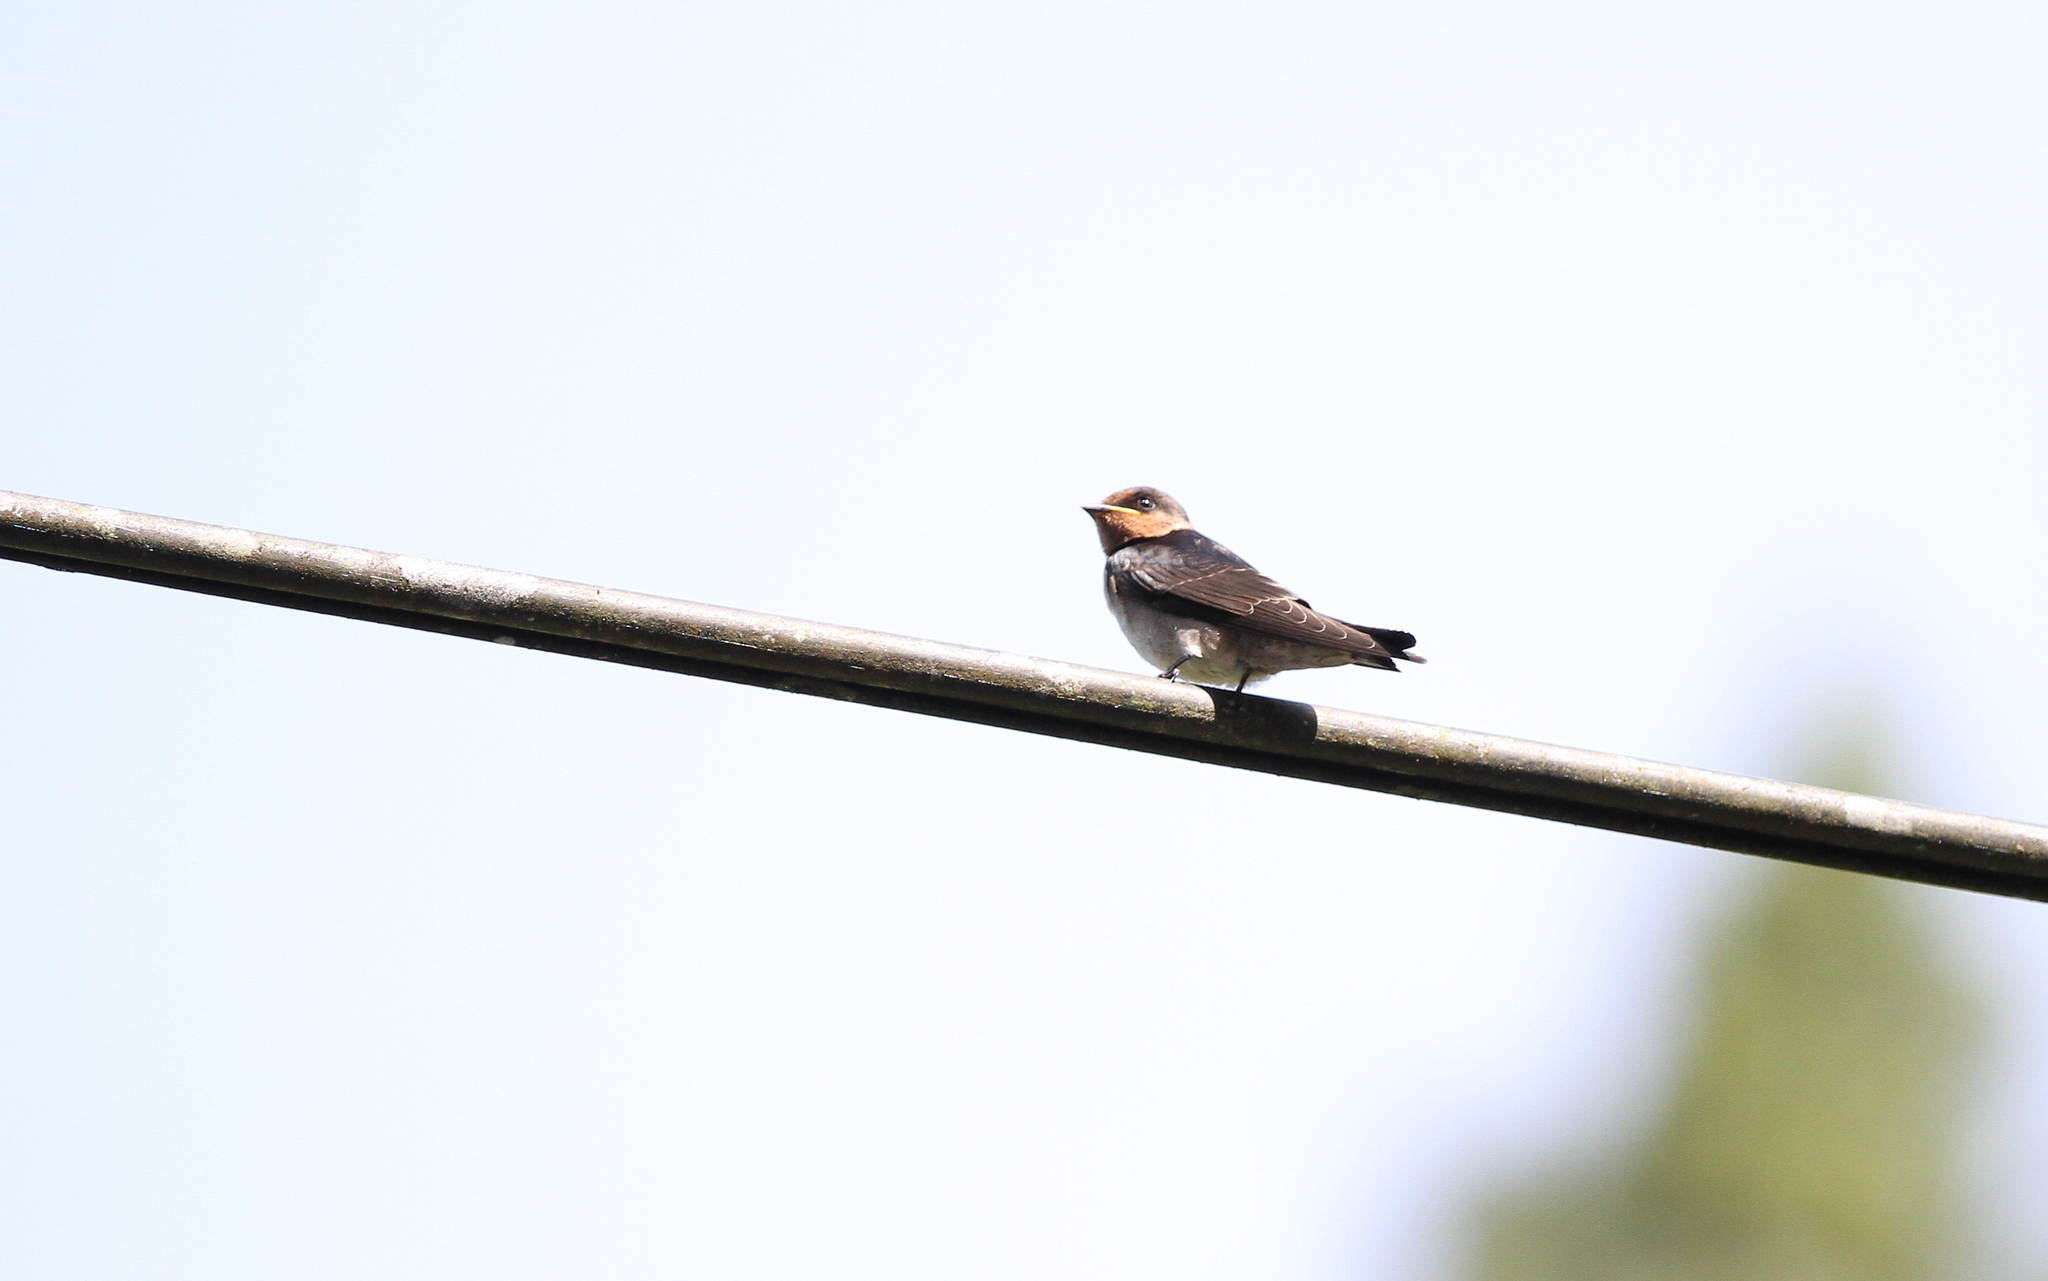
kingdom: Animalia
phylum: Chordata
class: Aves
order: Passeriformes
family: Hirundinidae
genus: Hirundo
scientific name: Hirundo tahitica
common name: Pacific swallow
